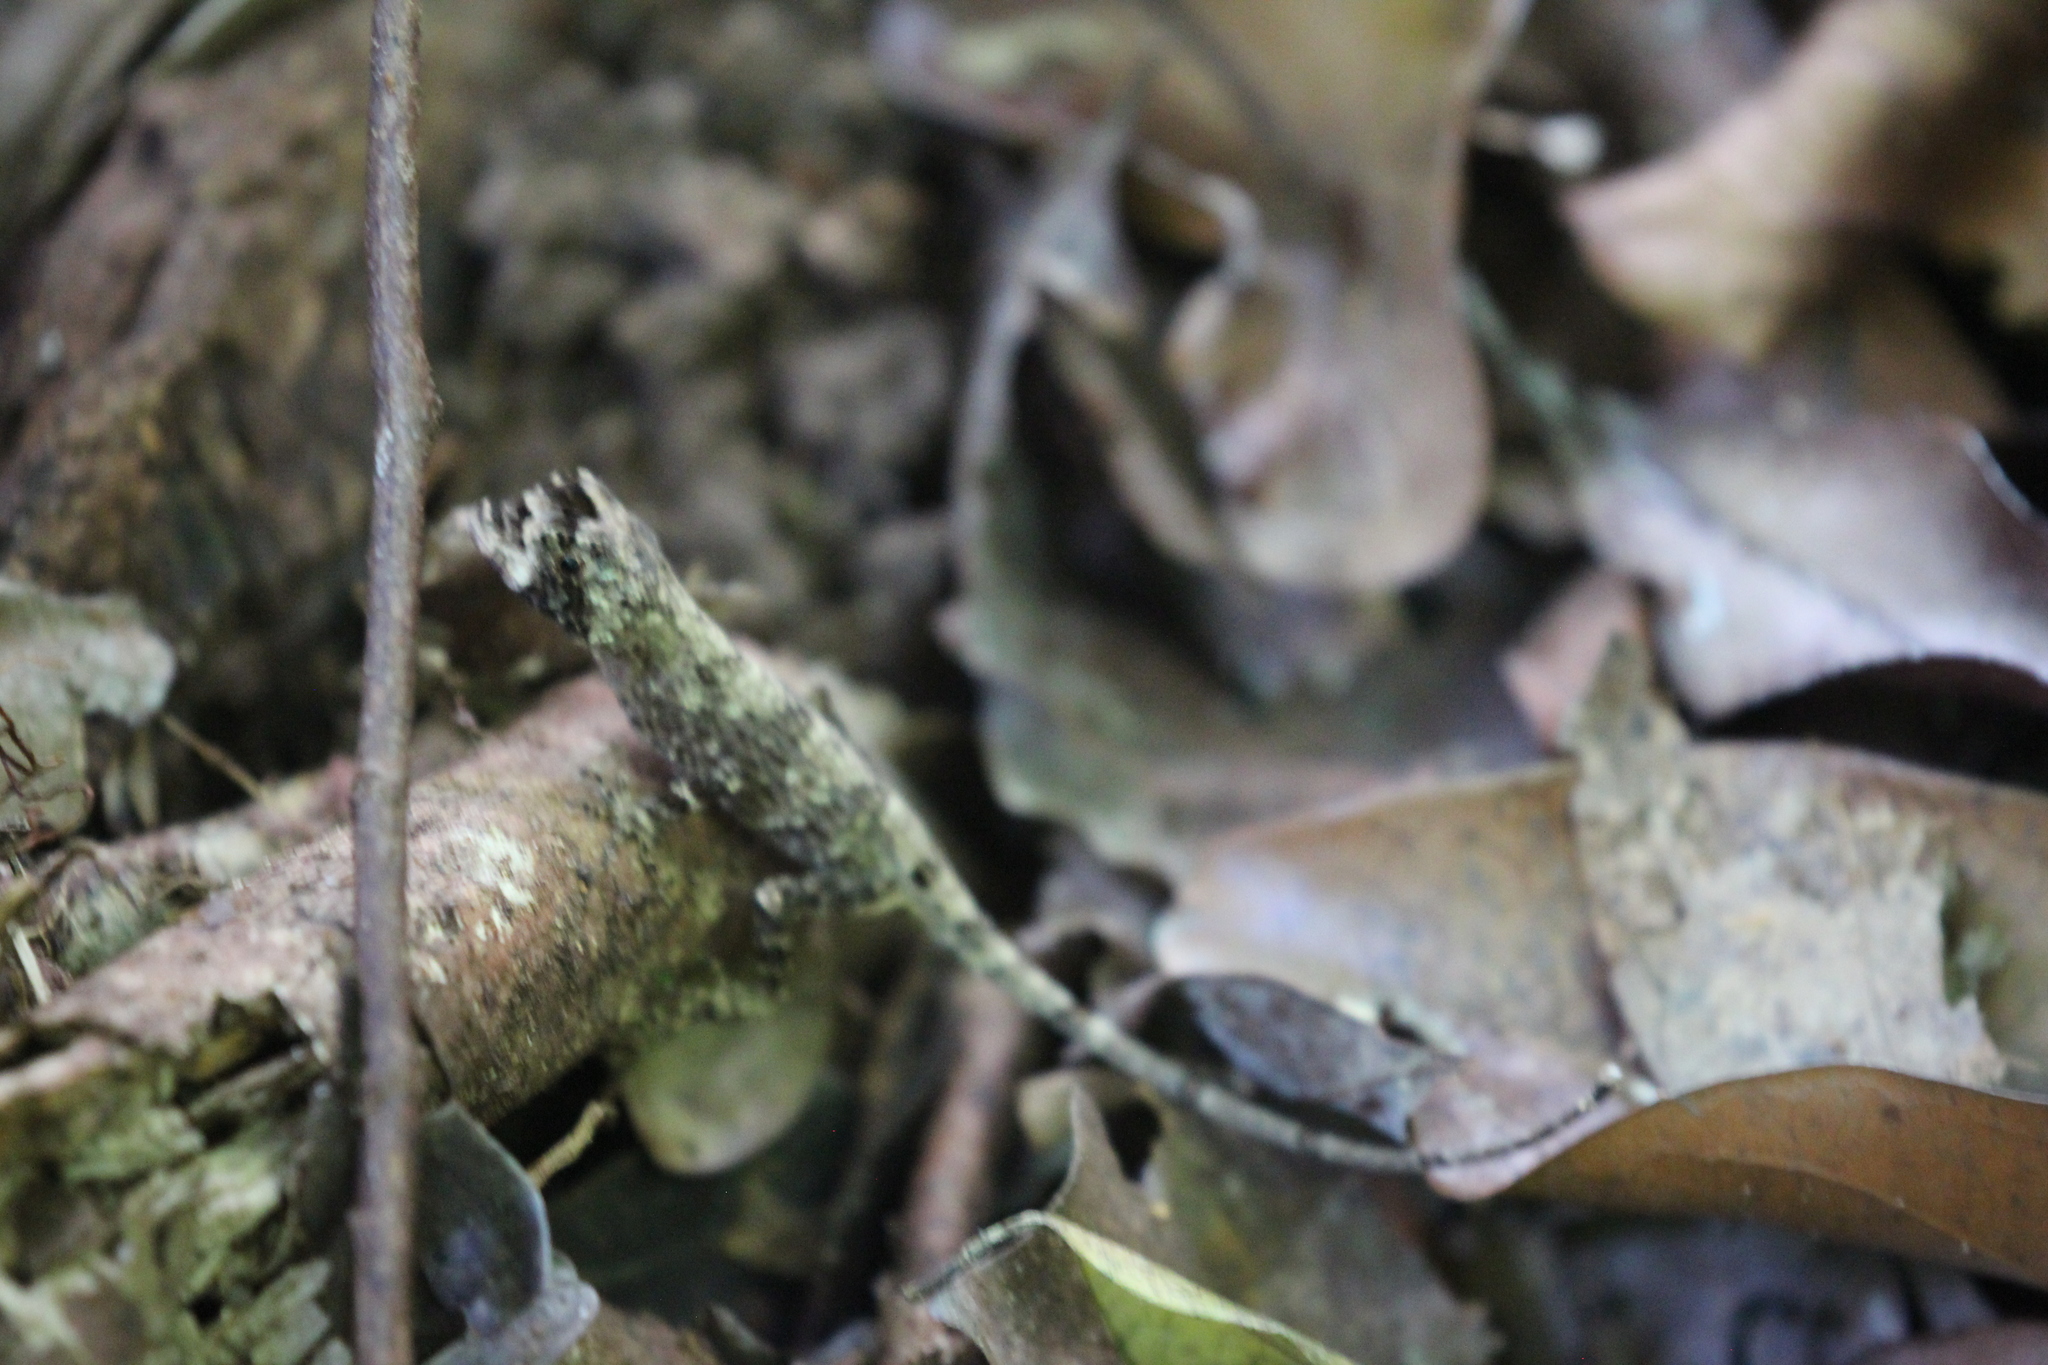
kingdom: Animalia
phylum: Chordata
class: Squamata
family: Dactyloidae
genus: Anolis
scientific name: Anolis capito
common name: Bighead anole
